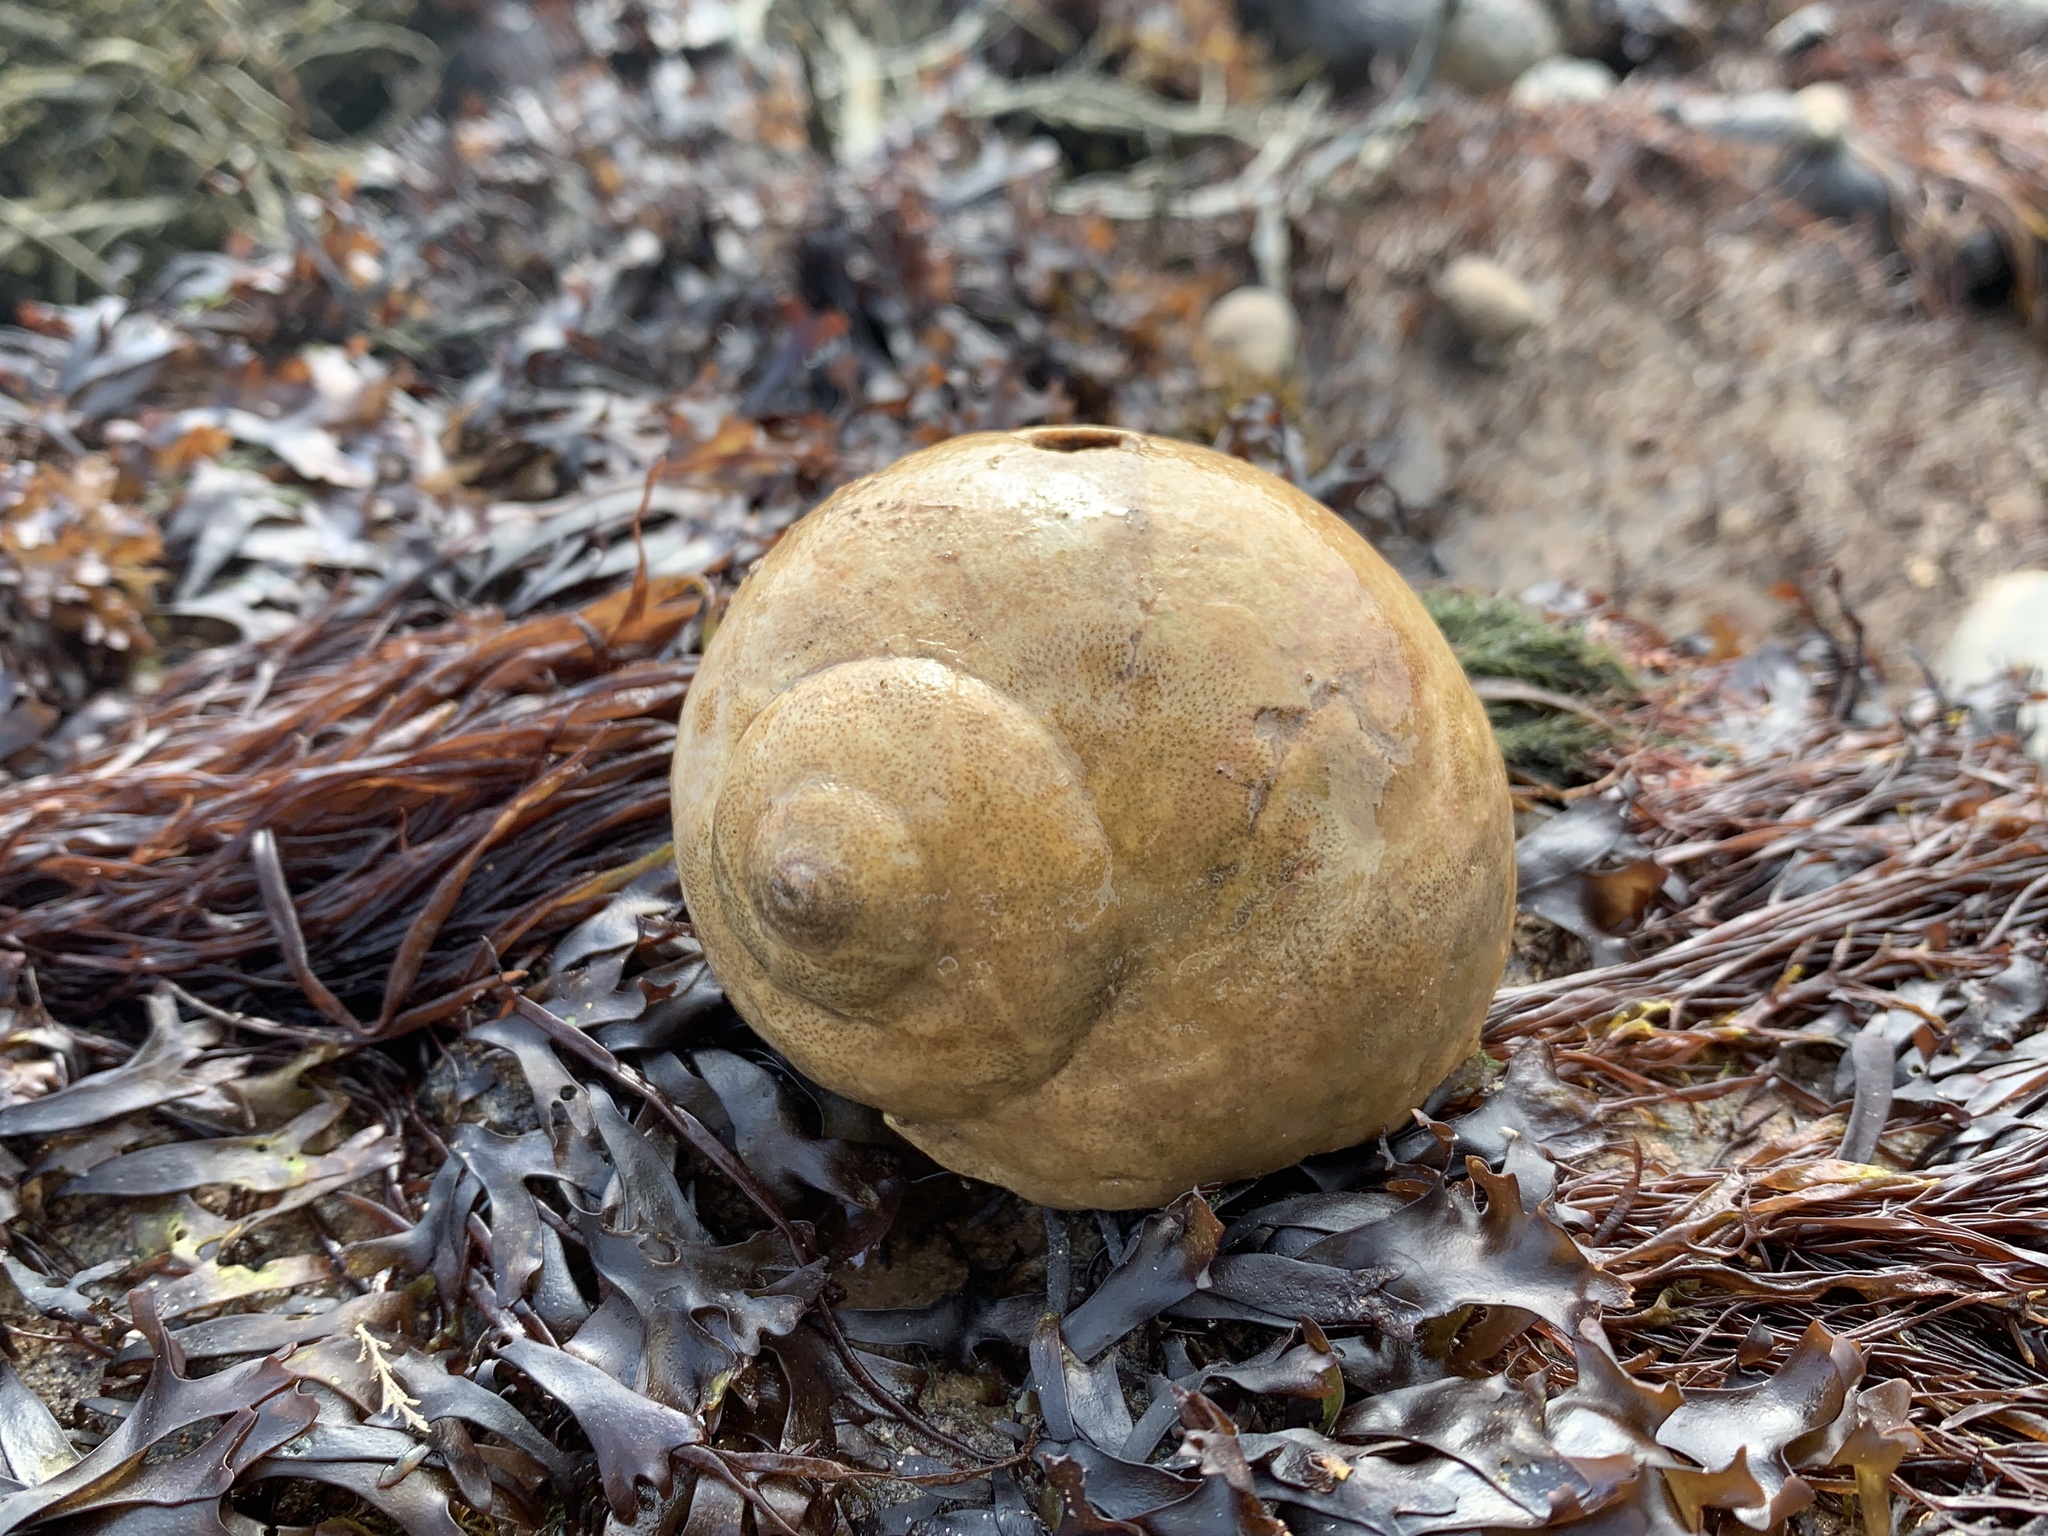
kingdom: Animalia
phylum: Mollusca
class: Gastropoda
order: Littorinimorpha
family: Naticidae
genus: Euspira
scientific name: Euspira heros
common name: Common northern moonsnail
